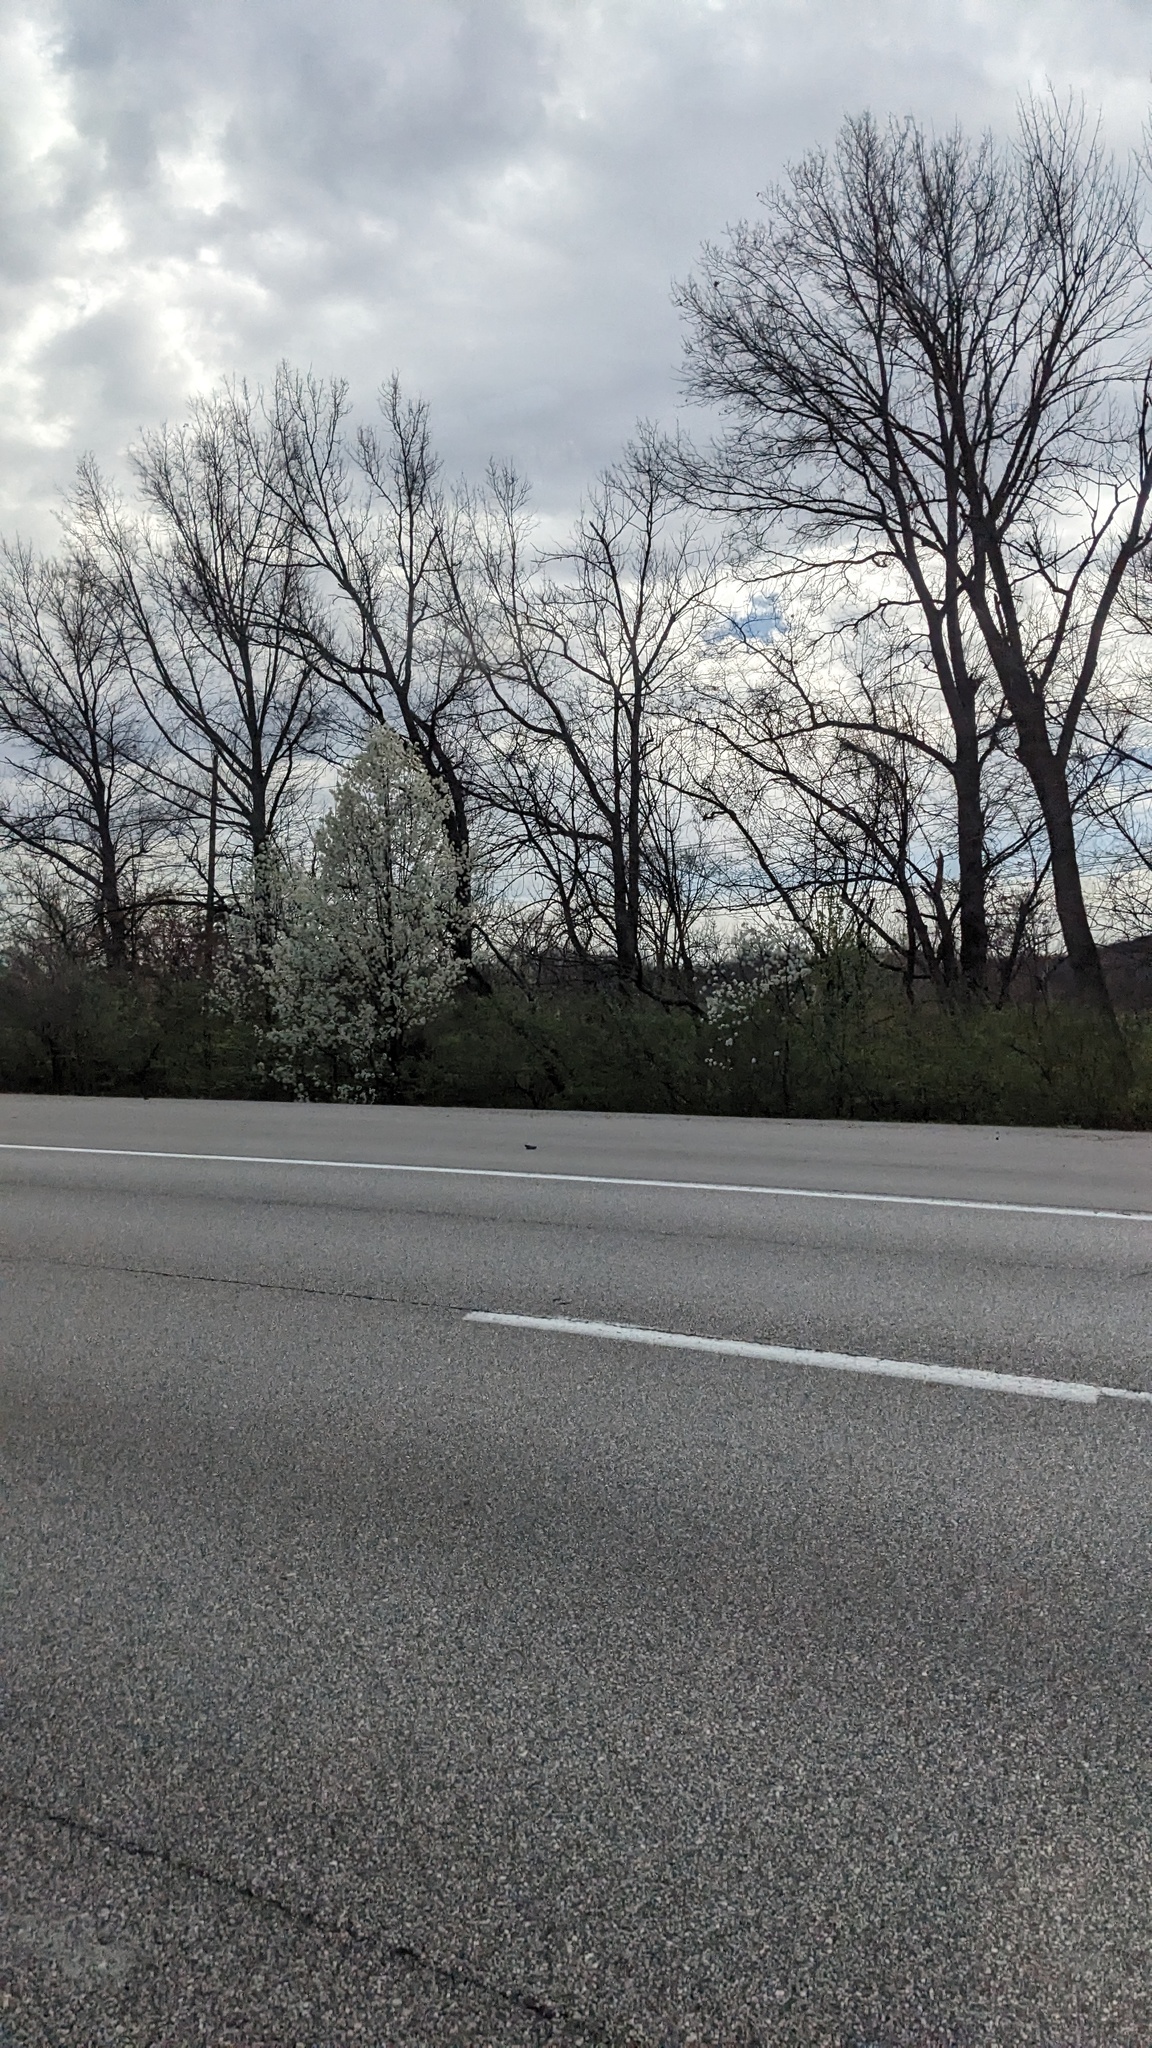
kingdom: Plantae
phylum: Tracheophyta
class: Magnoliopsida
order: Rosales
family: Rosaceae
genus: Pyrus
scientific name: Pyrus calleryana
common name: Callery pear
